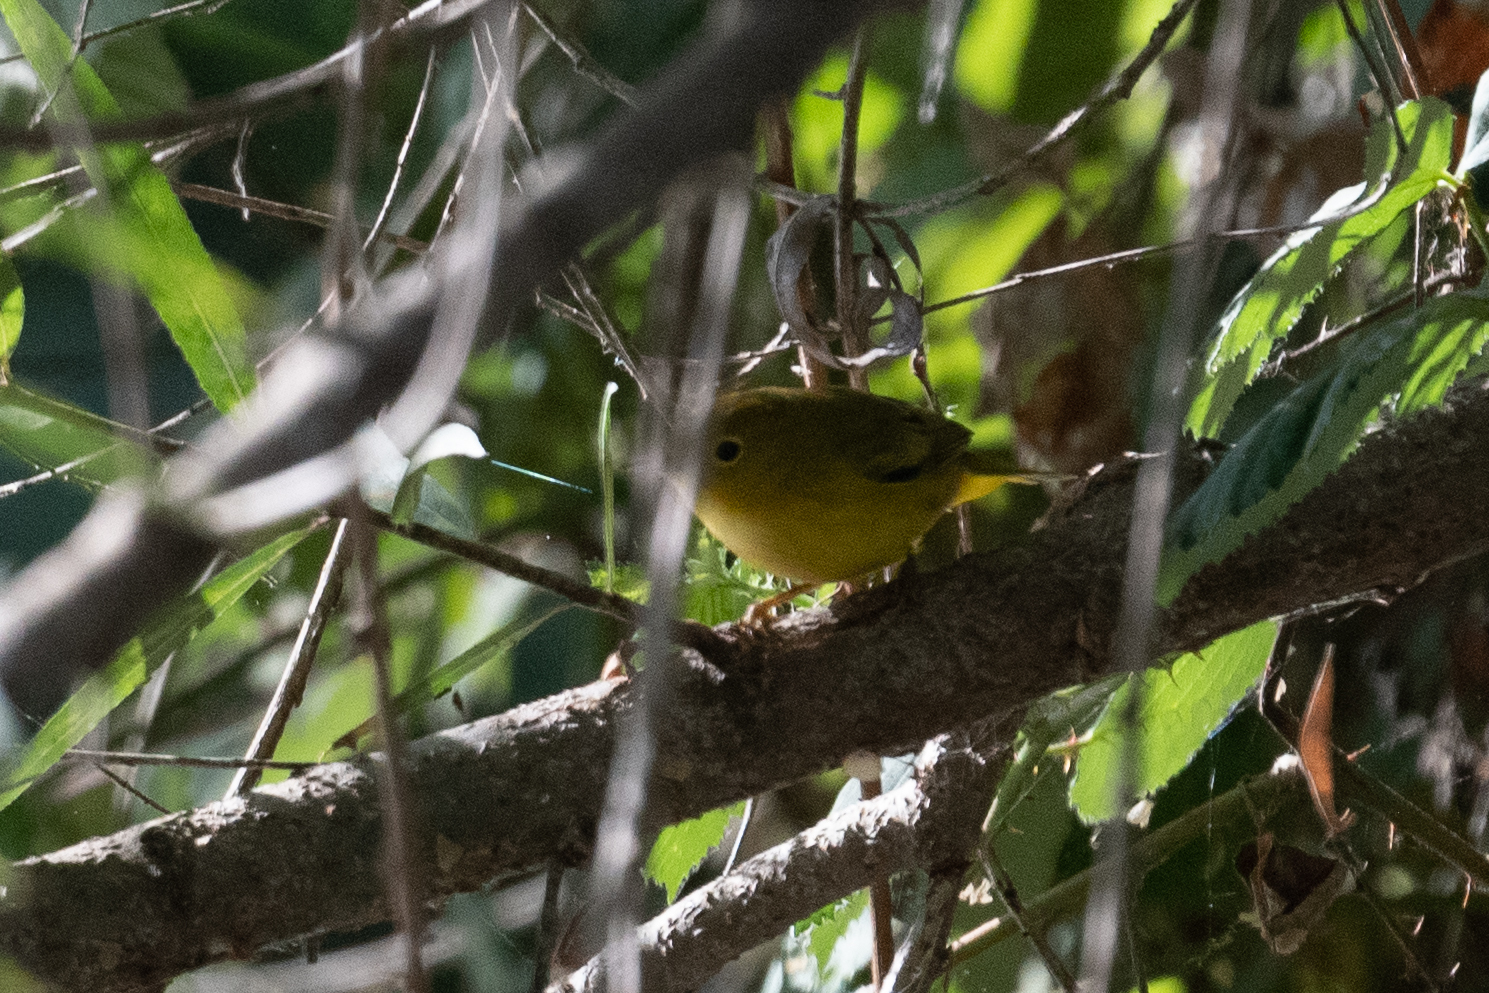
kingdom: Animalia
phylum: Chordata
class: Aves
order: Passeriformes
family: Parulidae
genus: Setophaga
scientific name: Setophaga petechia
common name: Yellow warbler
